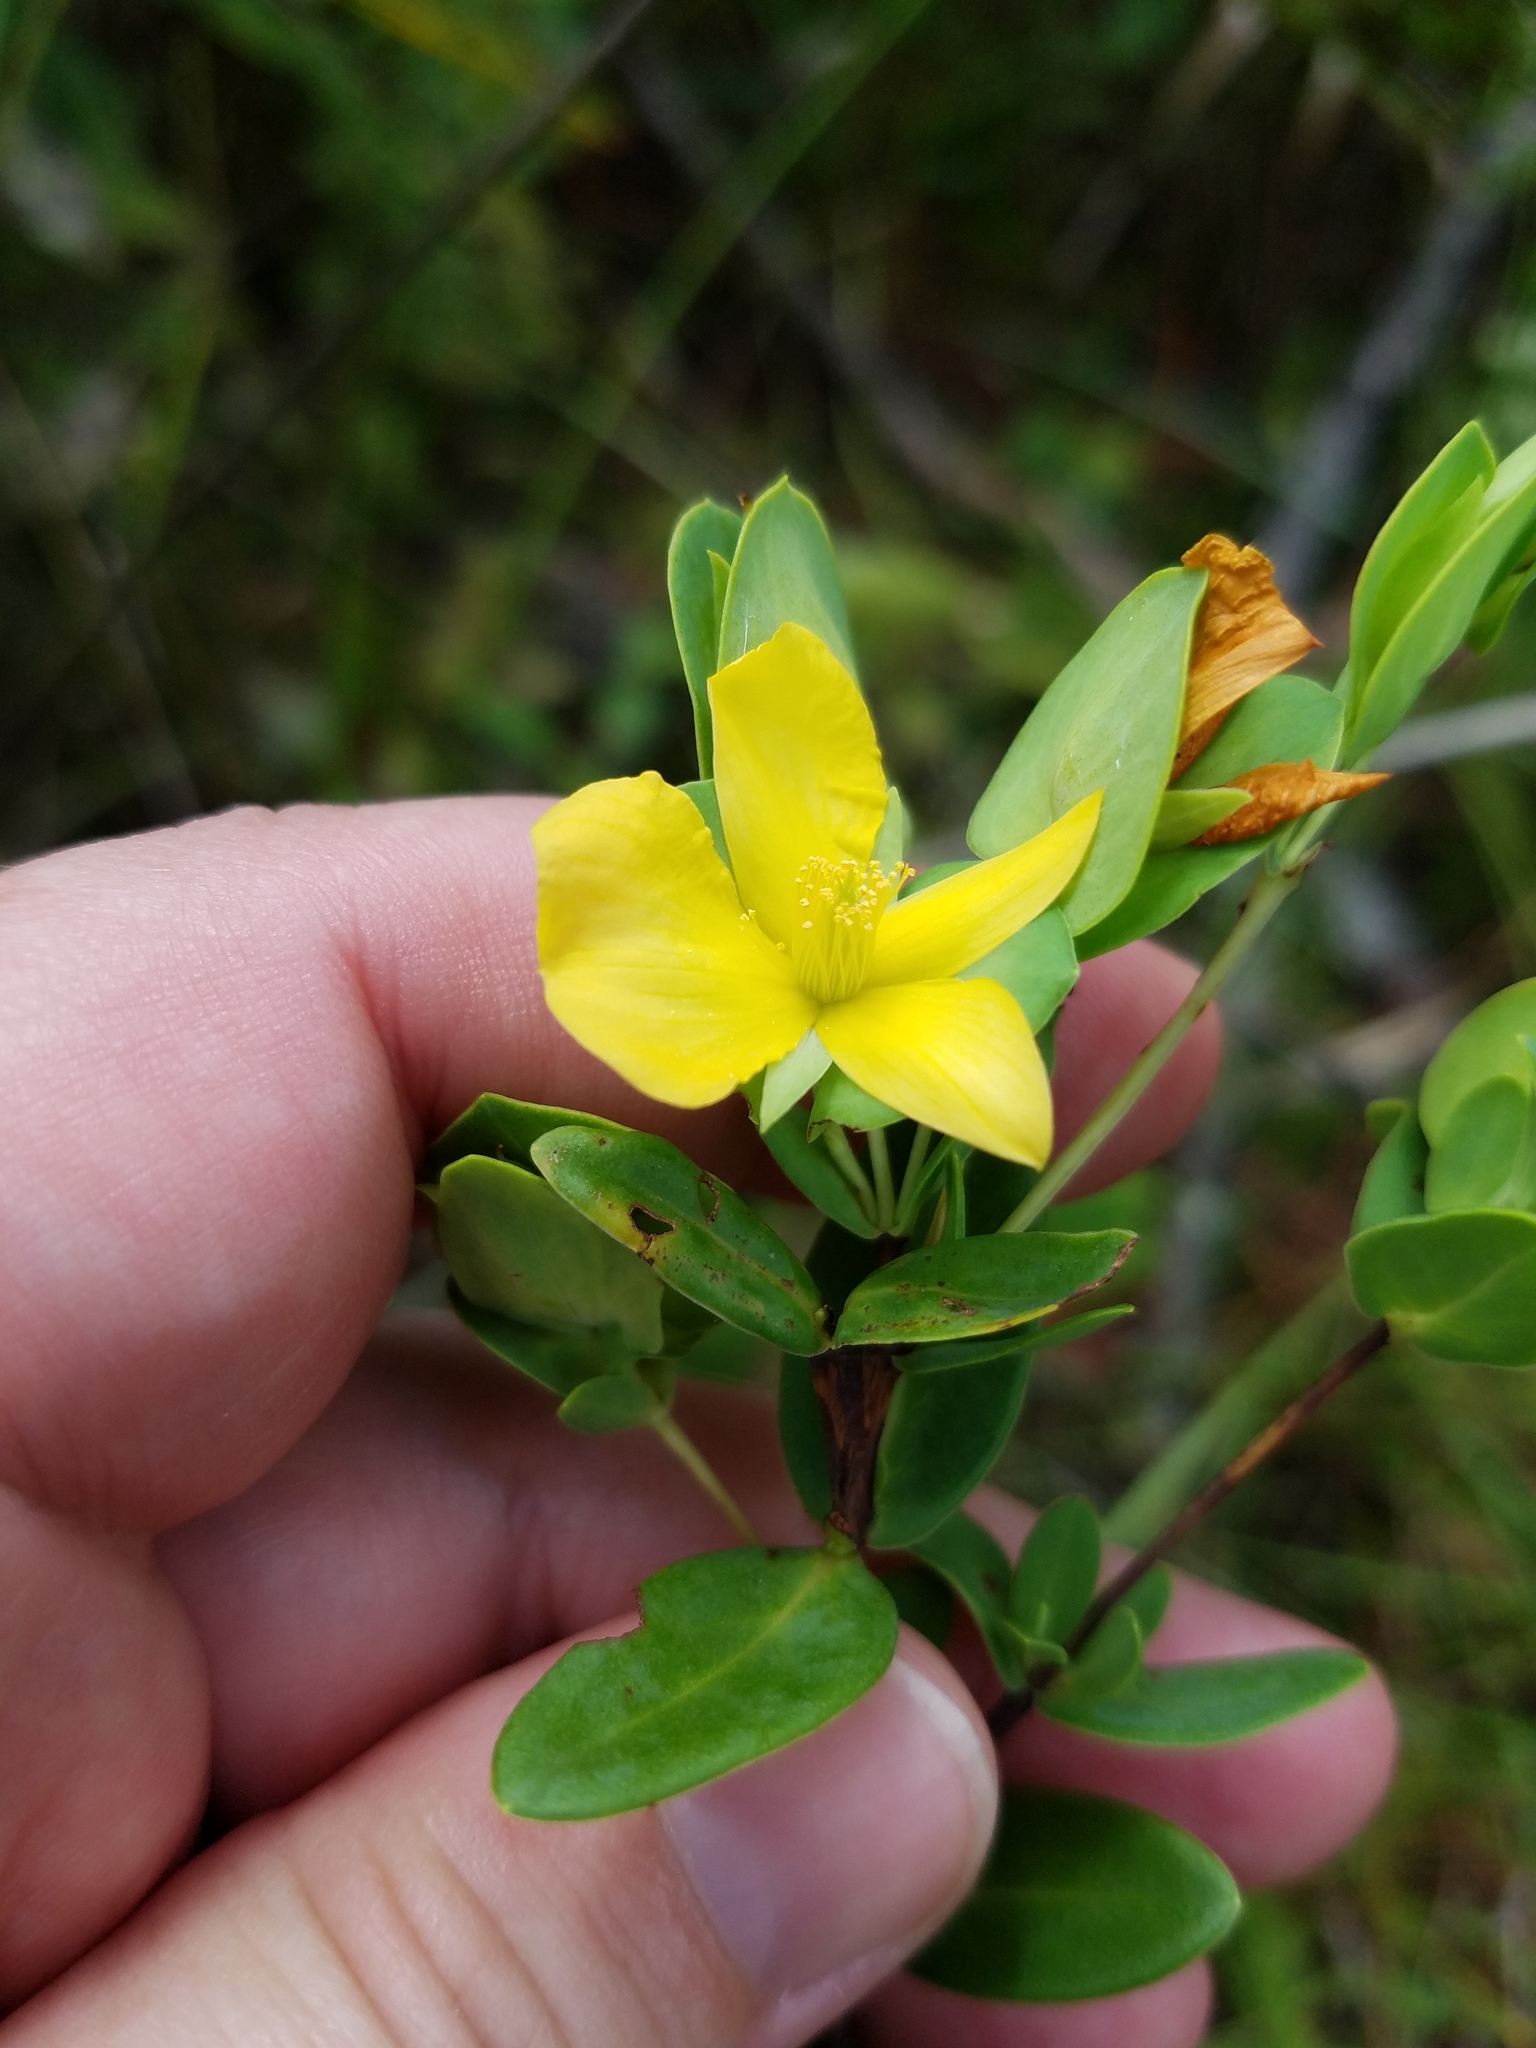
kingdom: Plantae
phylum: Tracheophyta
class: Magnoliopsida
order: Malpighiales
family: Hypericaceae
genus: Hypericum
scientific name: Hypericum crux-andreae
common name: St.-peter's-wort
